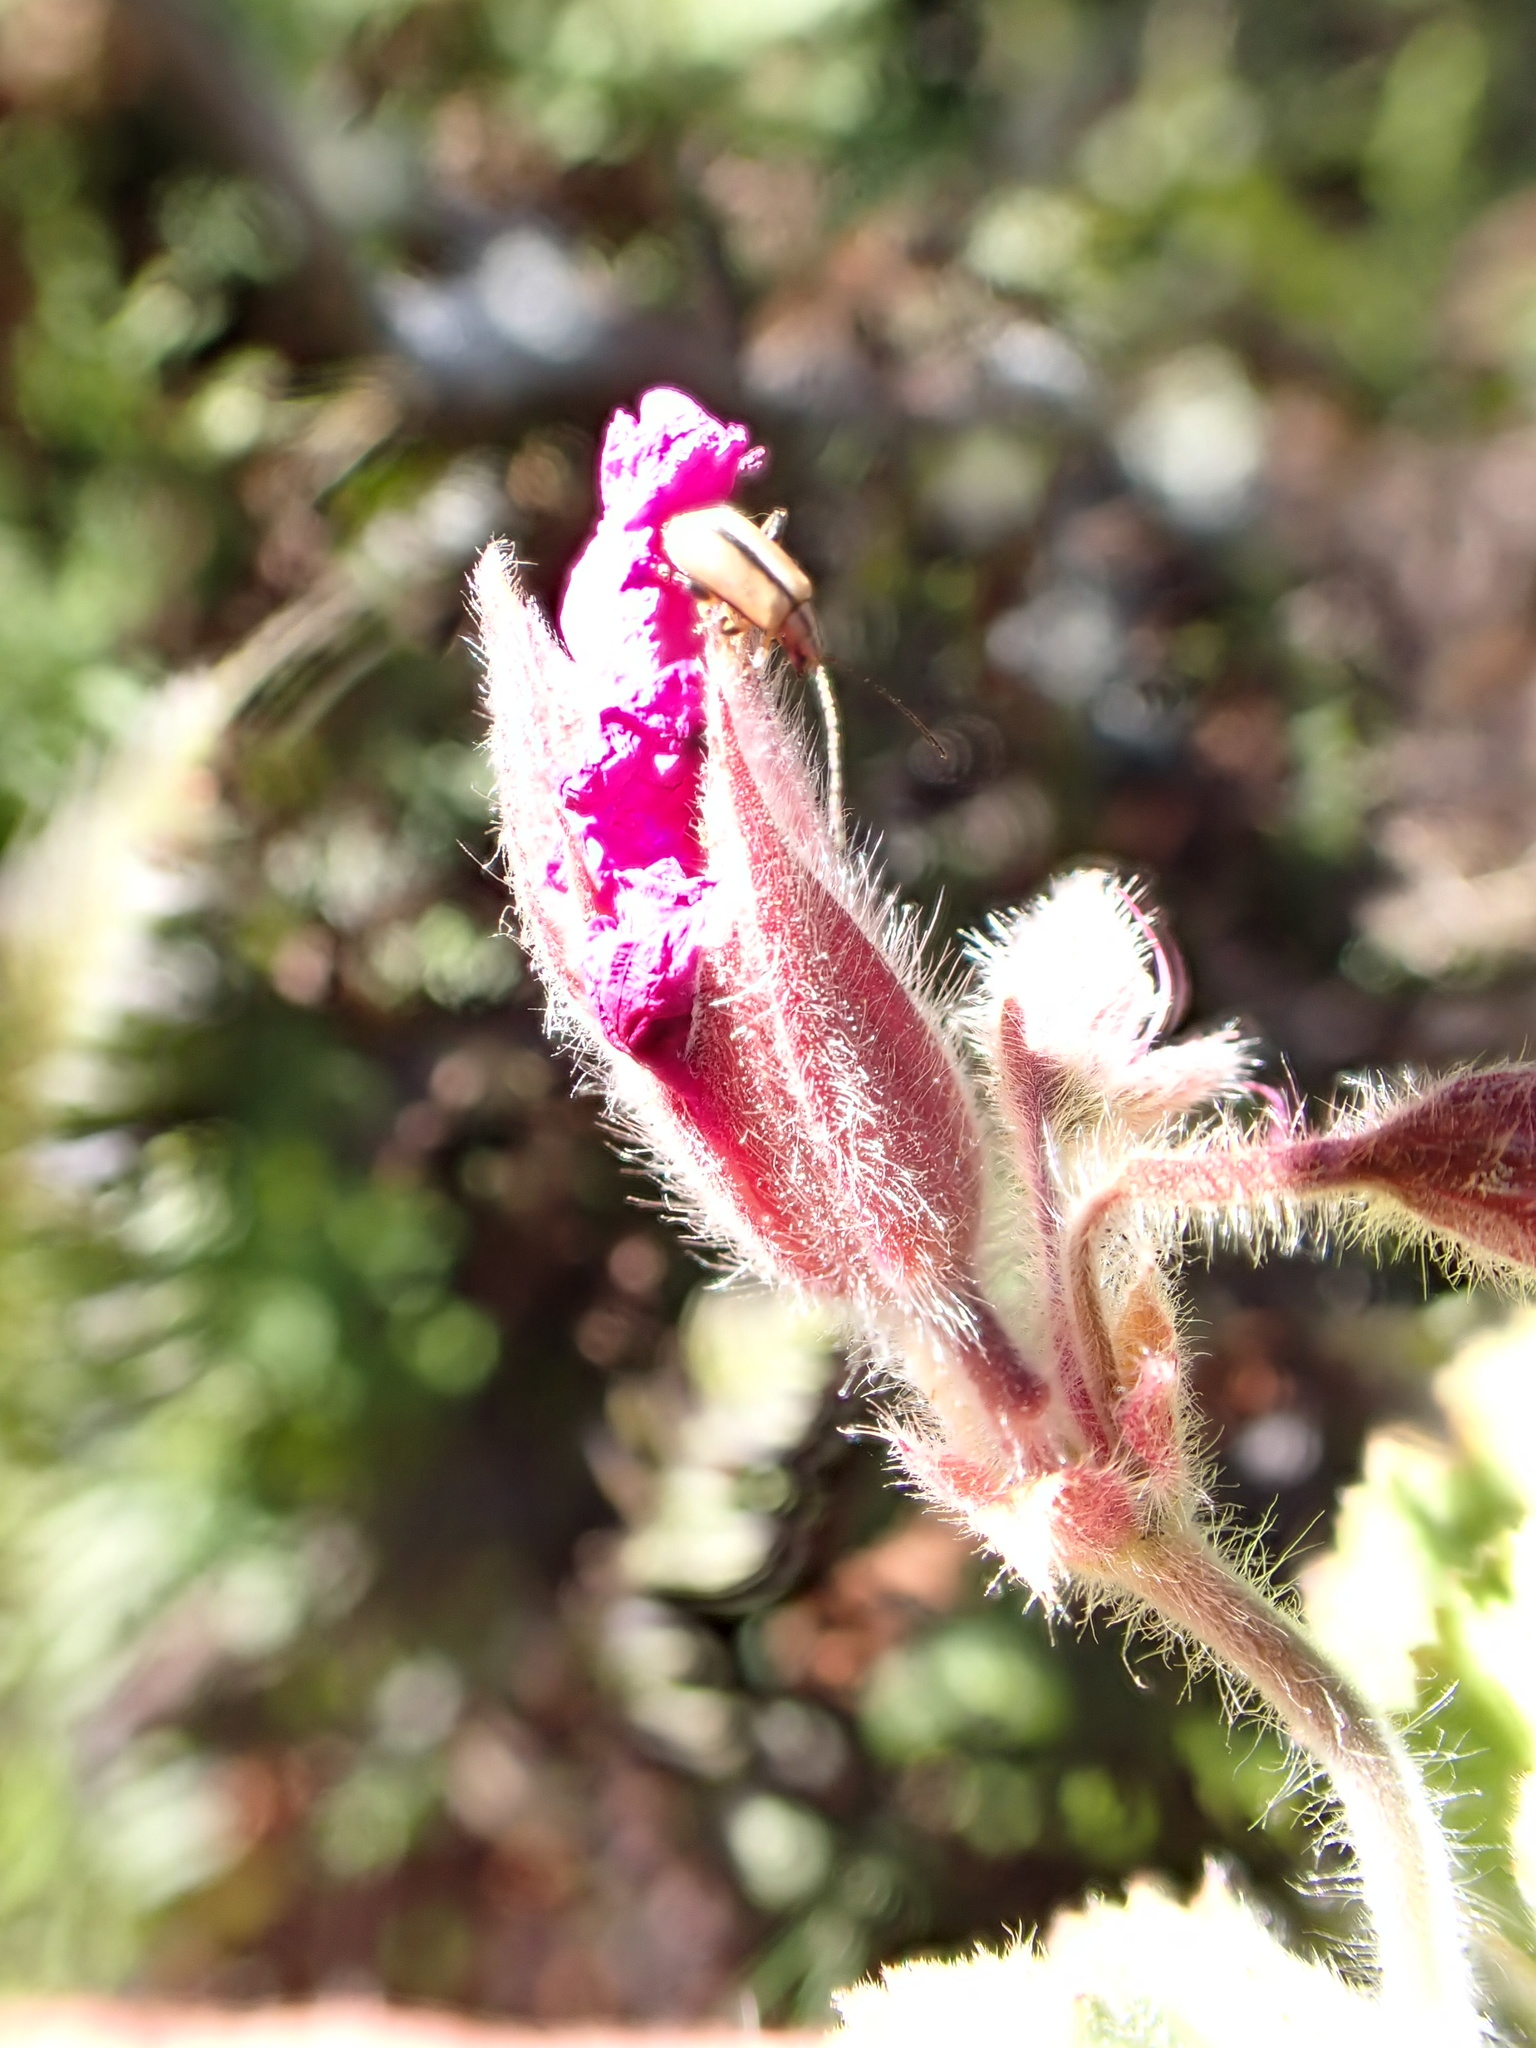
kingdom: Plantae
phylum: Tracheophyta
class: Magnoliopsida
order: Geraniales
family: Geraniaceae
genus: Pelargonium
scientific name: Pelargonium cucullatum
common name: Tree pelargonium
